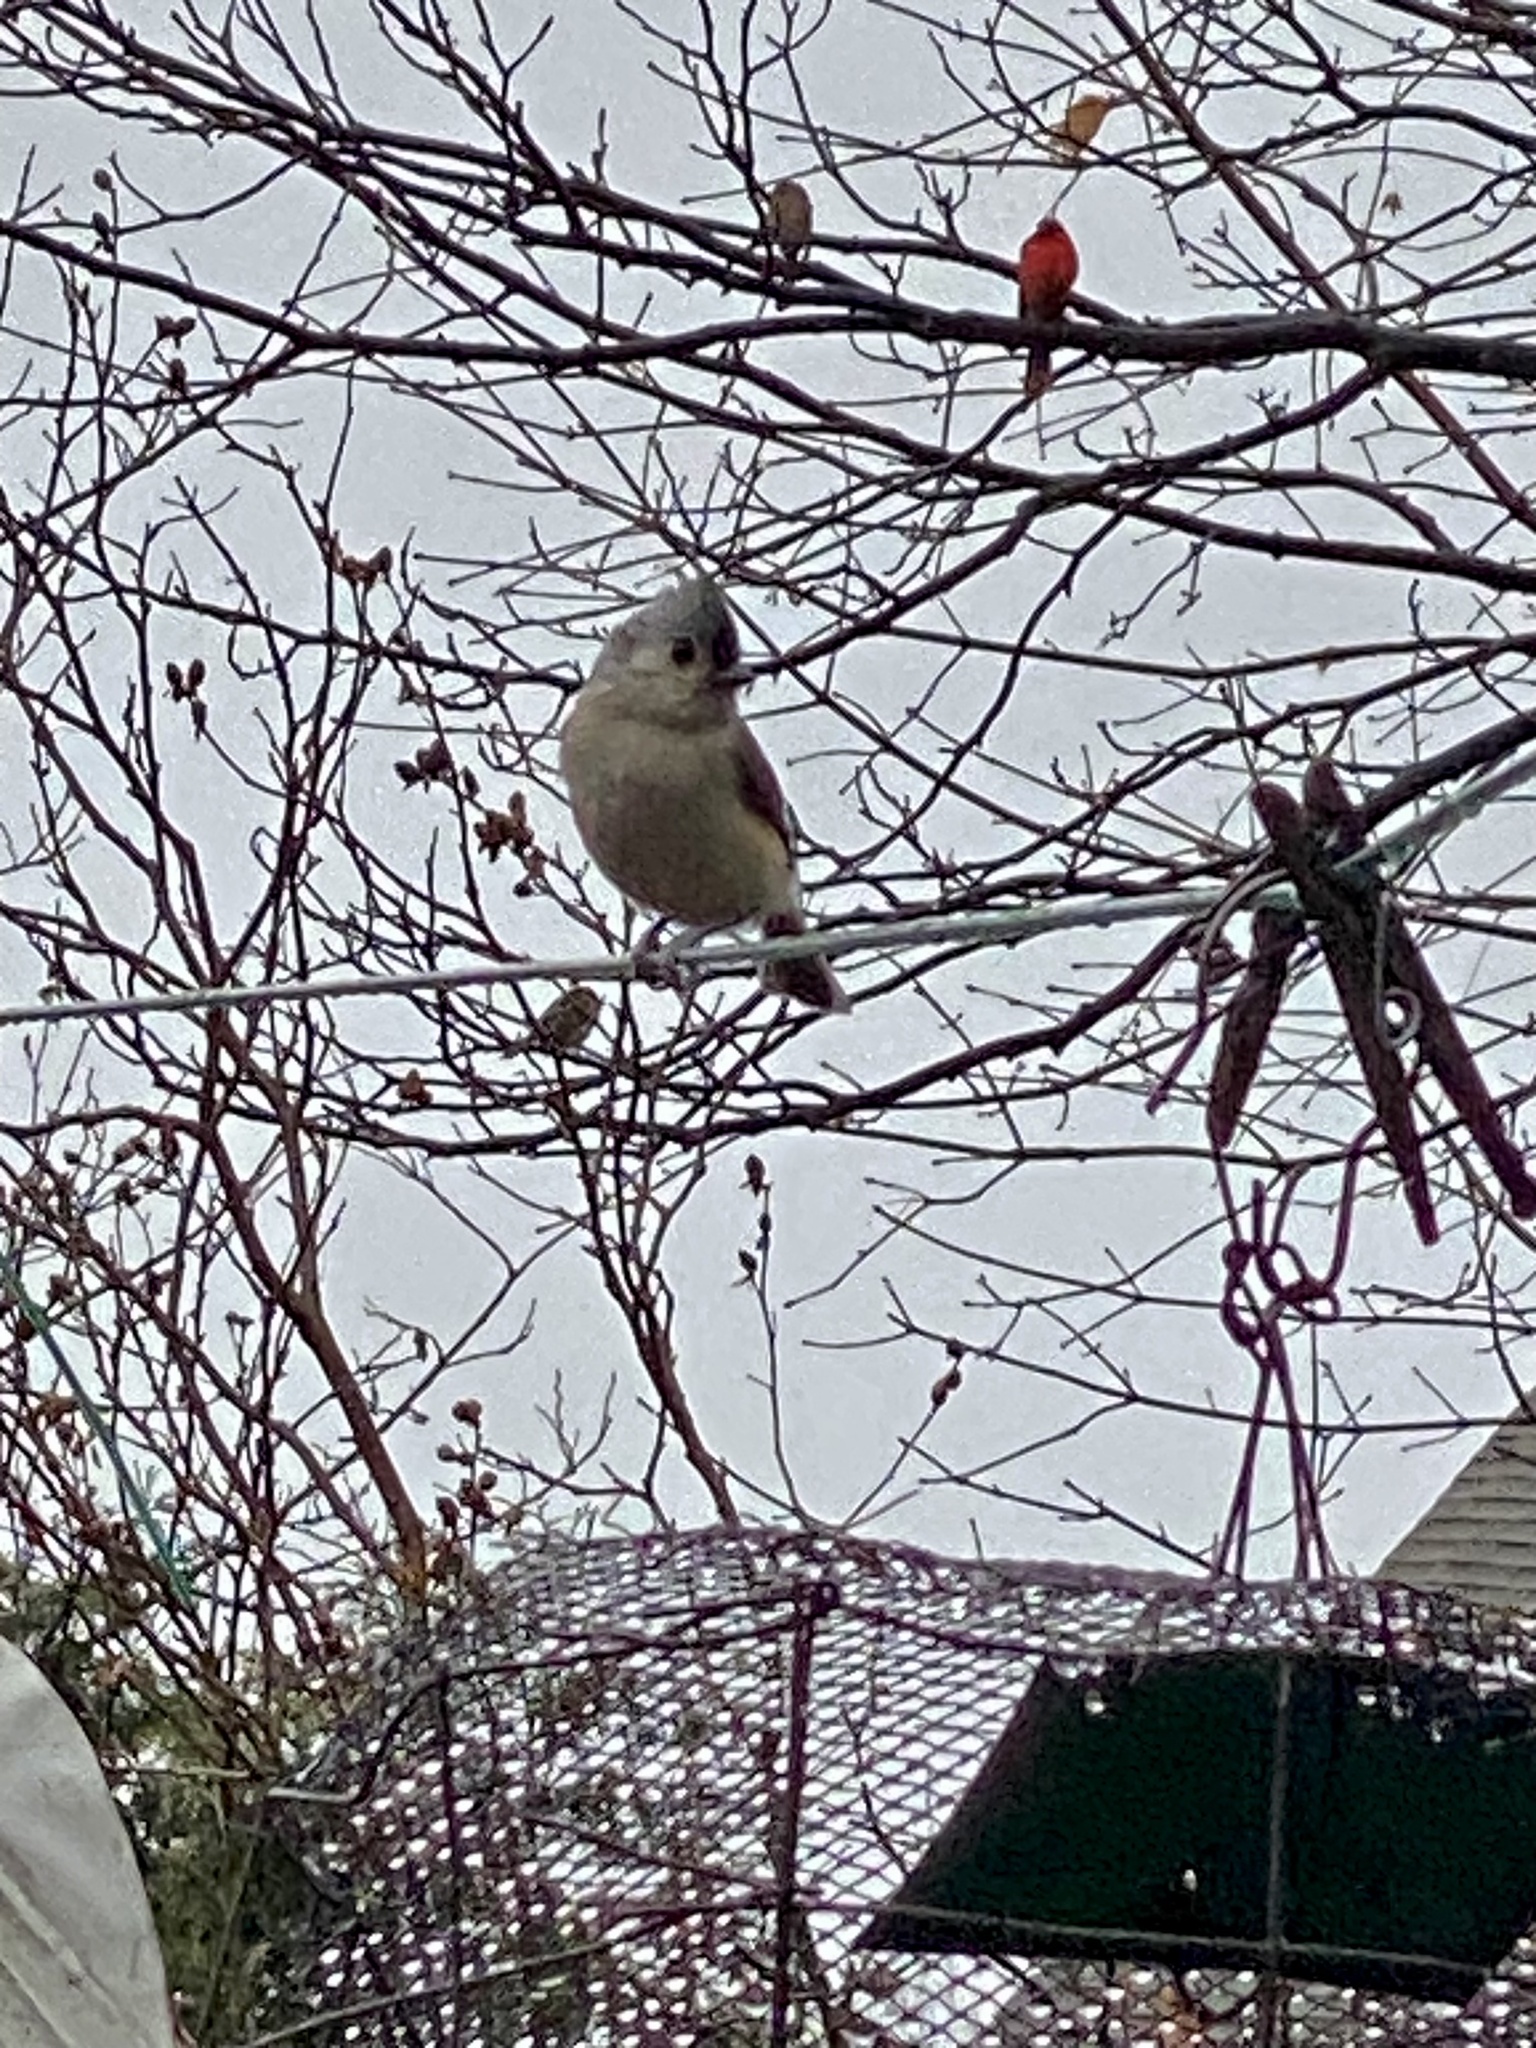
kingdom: Animalia
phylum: Chordata
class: Aves
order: Passeriformes
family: Paridae
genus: Baeolophus
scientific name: Baeolophus bicolor
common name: Tufted titmouse
